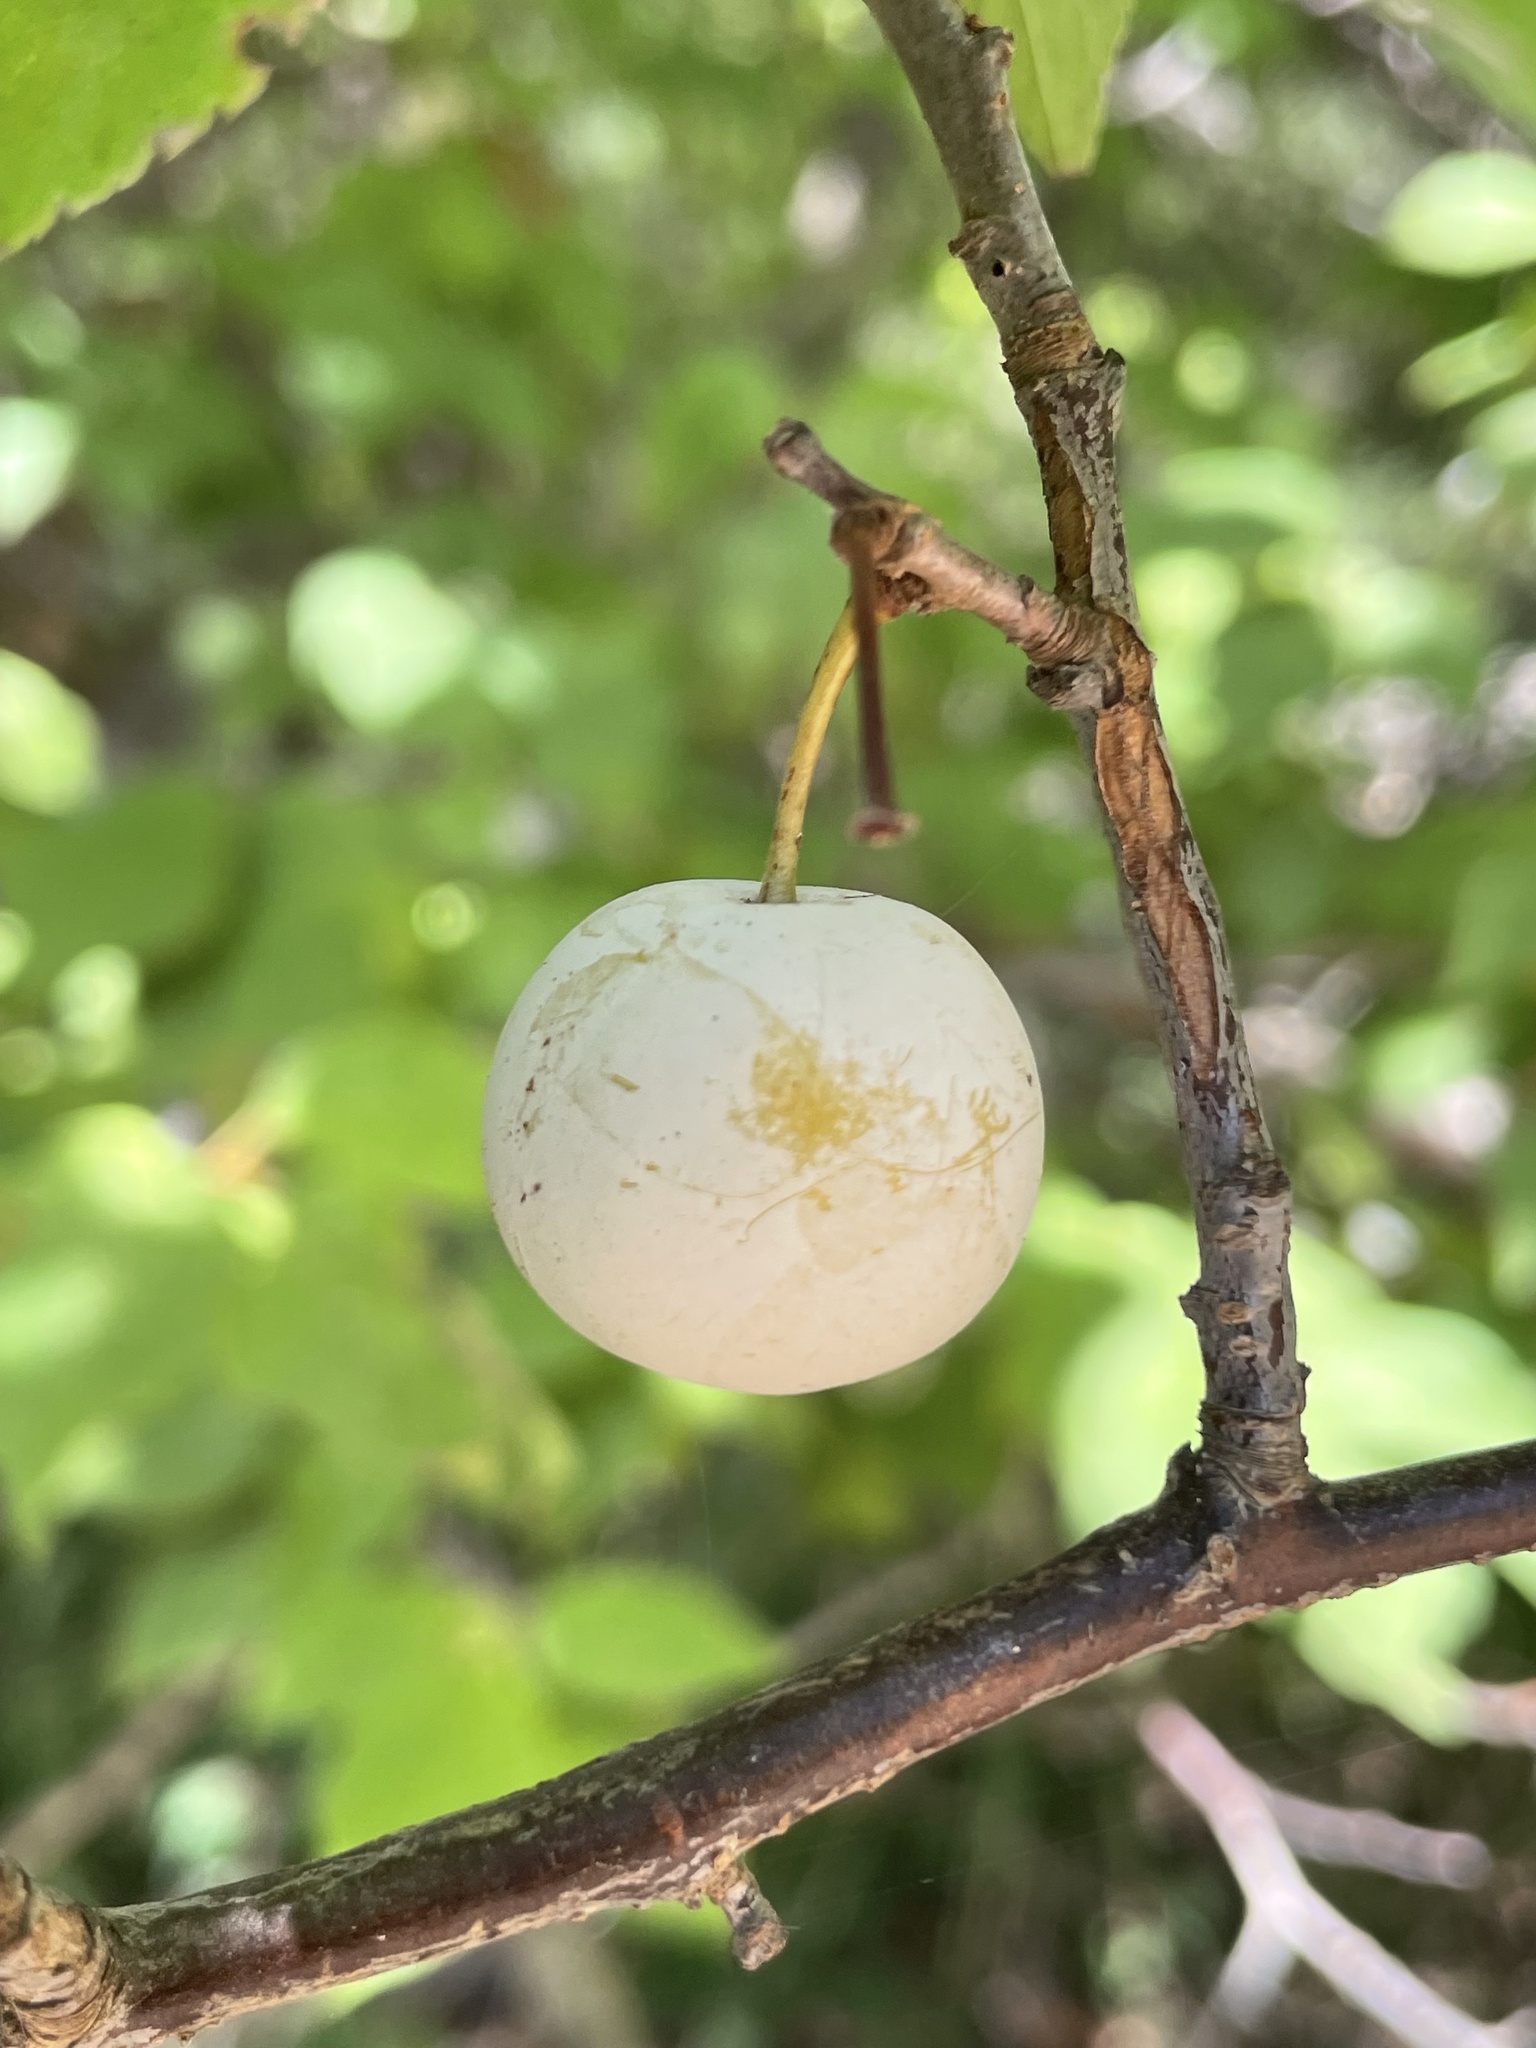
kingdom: Plantae
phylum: Tracheophyta
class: Magnoliopsida
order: Rosales
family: Rosaceae
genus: Prunus
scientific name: Prunus mexicana
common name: Mexican plum
